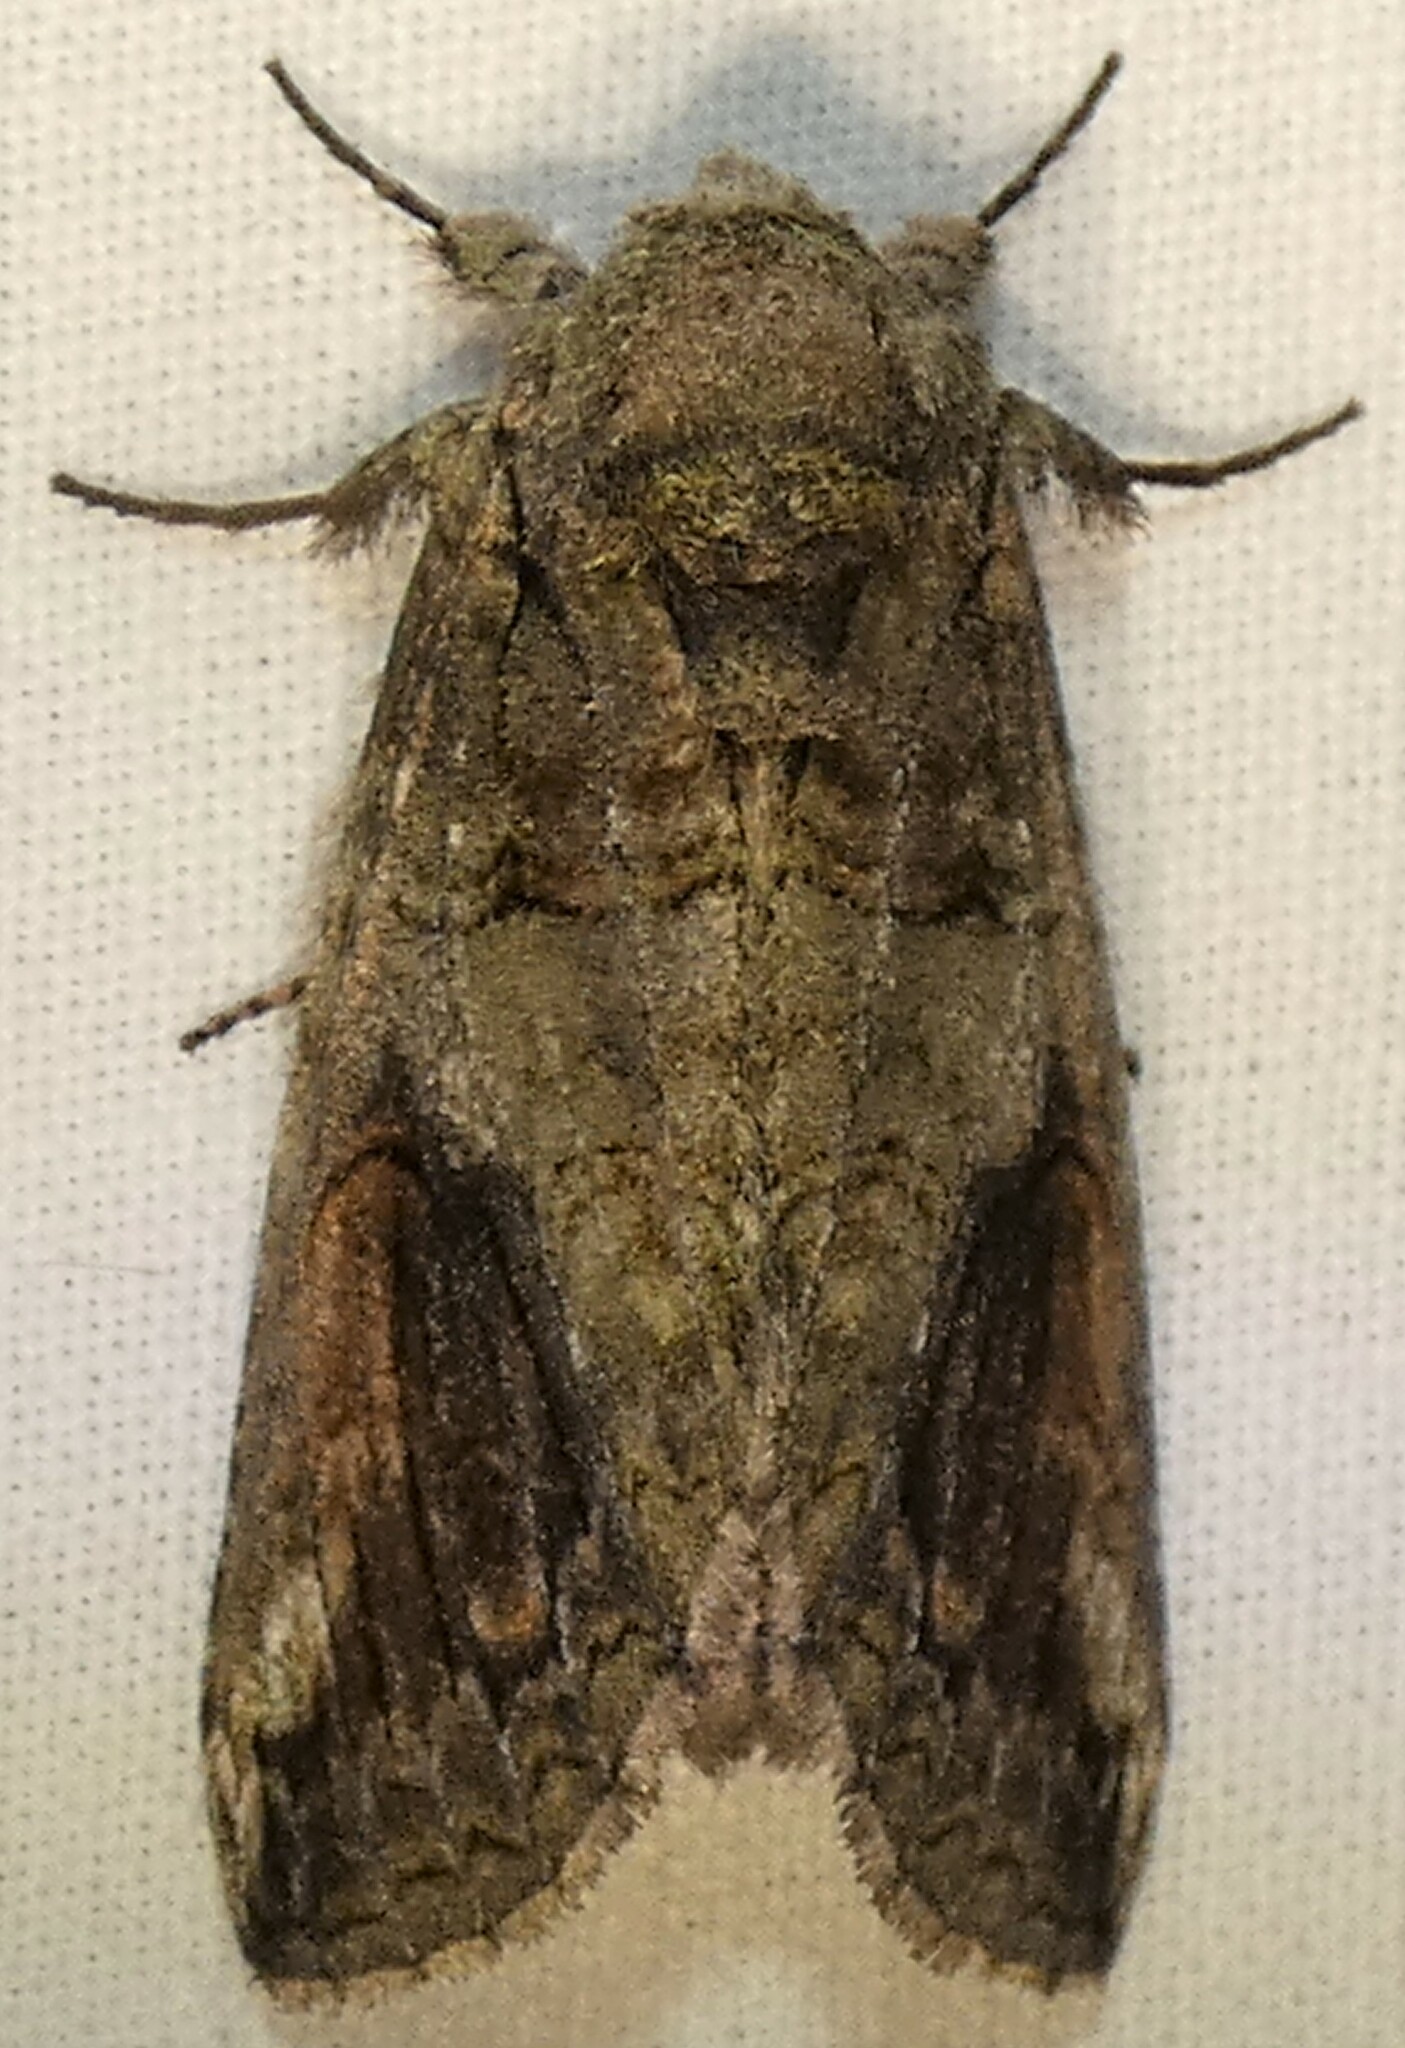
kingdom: Animalia
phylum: Arthropoda
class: Insecta
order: Lepidoptera
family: Notodontidae
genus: Heterocampa
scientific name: Heterocampa obliqua
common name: Oblique heterocampa
